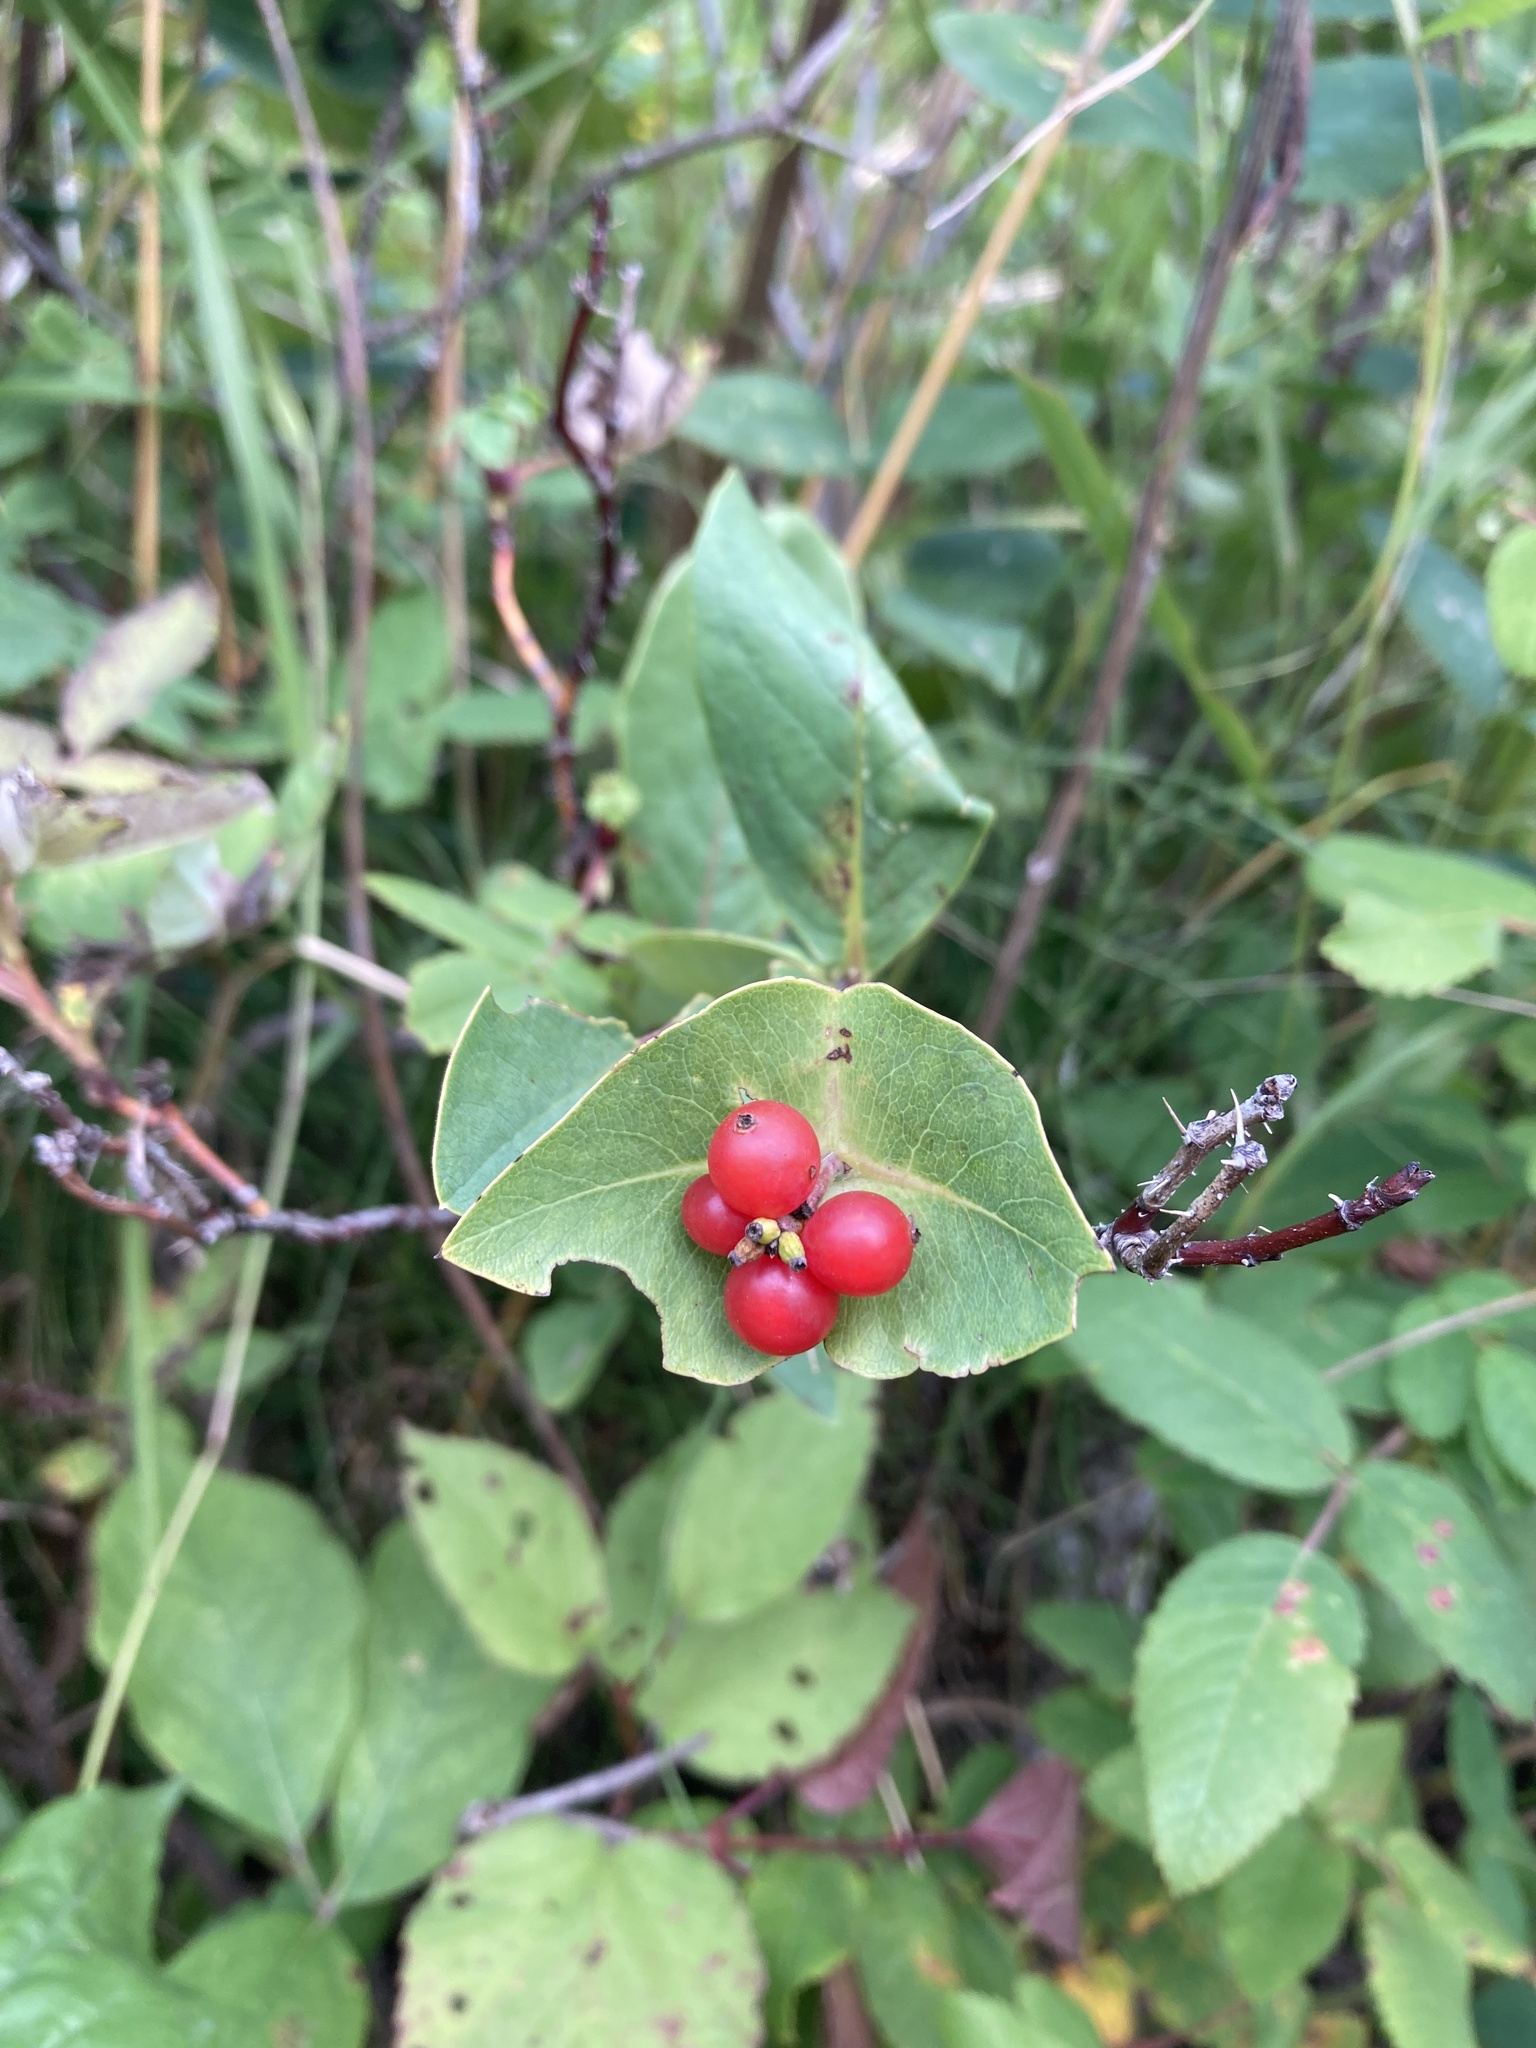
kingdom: Plantae
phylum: Tracheophyta
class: Magnoliopsida
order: Dipsacales
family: Caprifoliaceae
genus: Lonicera
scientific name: Lonicera dioica
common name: Limber honeysuckle
